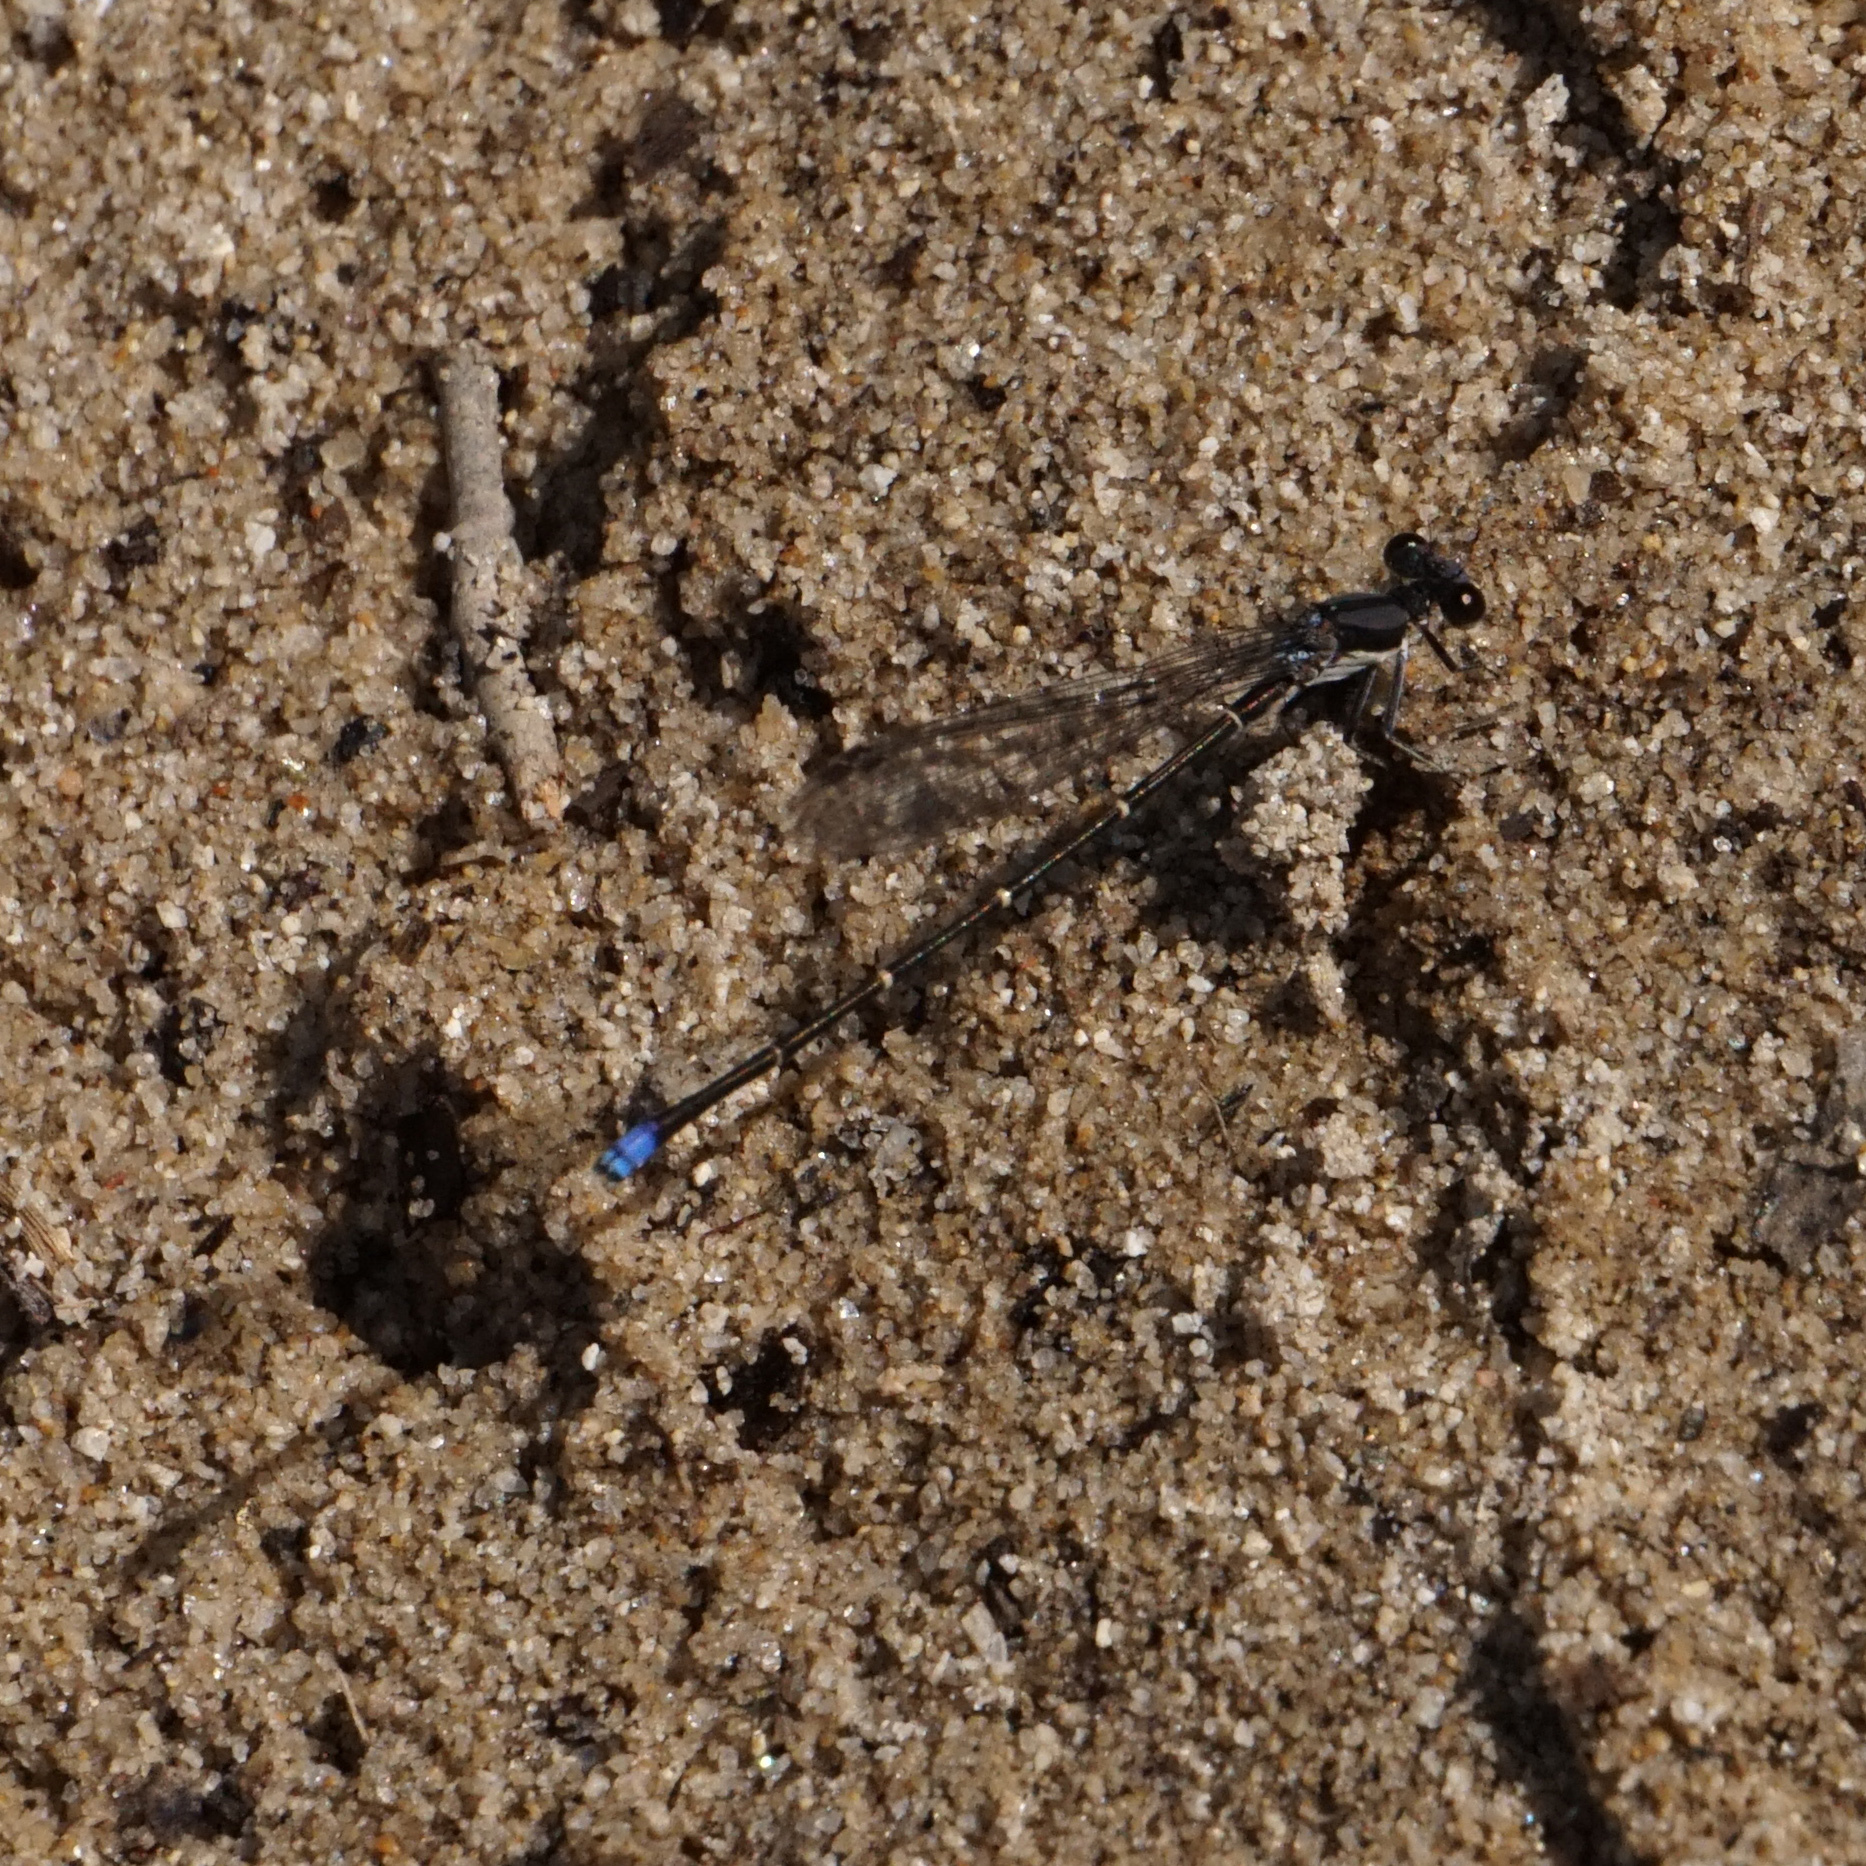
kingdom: Animalia
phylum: Arthropoda
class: Insecta
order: Odonata
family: Coenagrionidae
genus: Argia
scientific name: Argia tibialis
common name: Blue-tipped dancer
